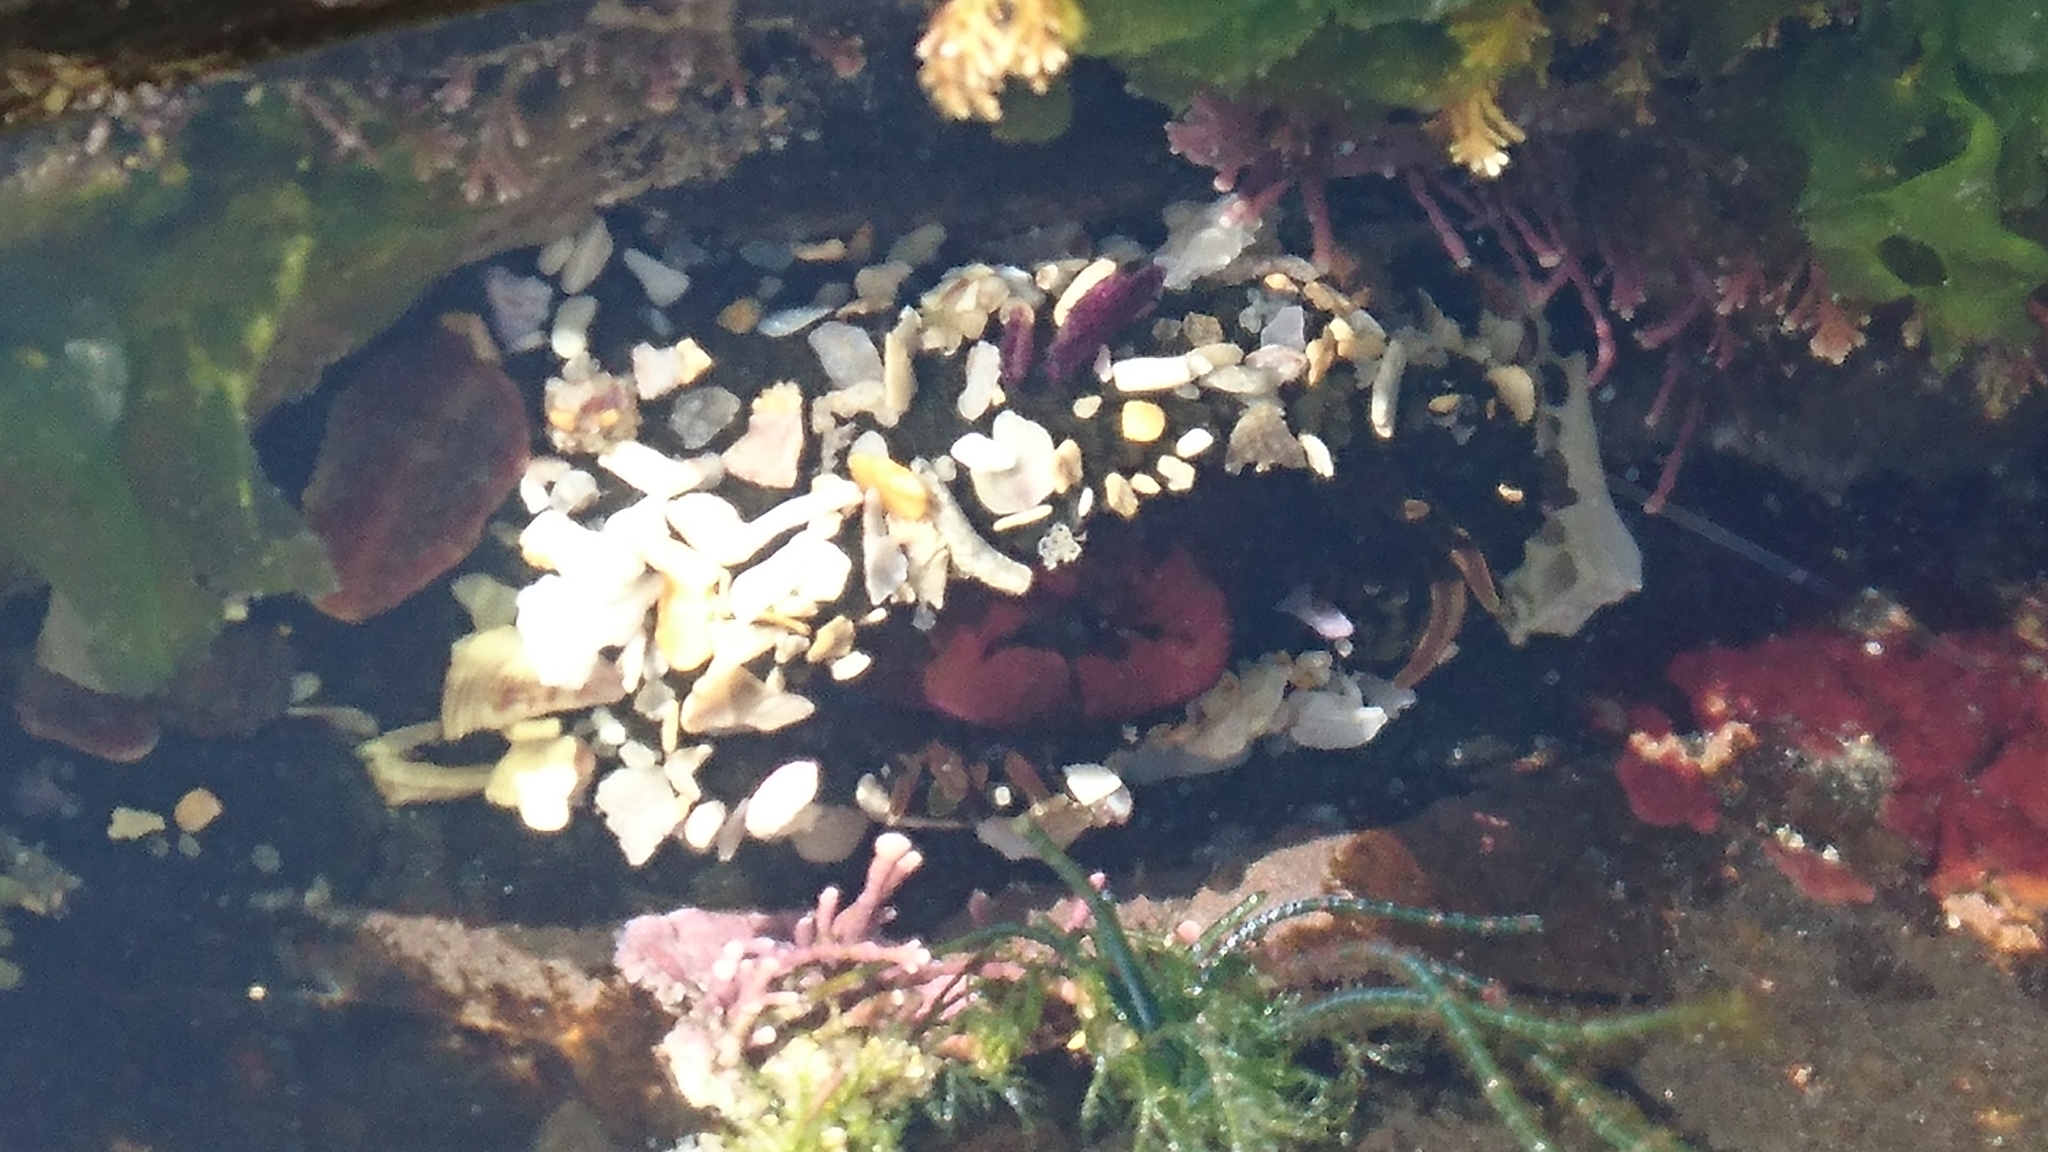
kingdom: Animalia
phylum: Cnidaria
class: Anthozoa
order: Actiniaria
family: Actiniidae
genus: Oulactis
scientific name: Oulactis muscosa
